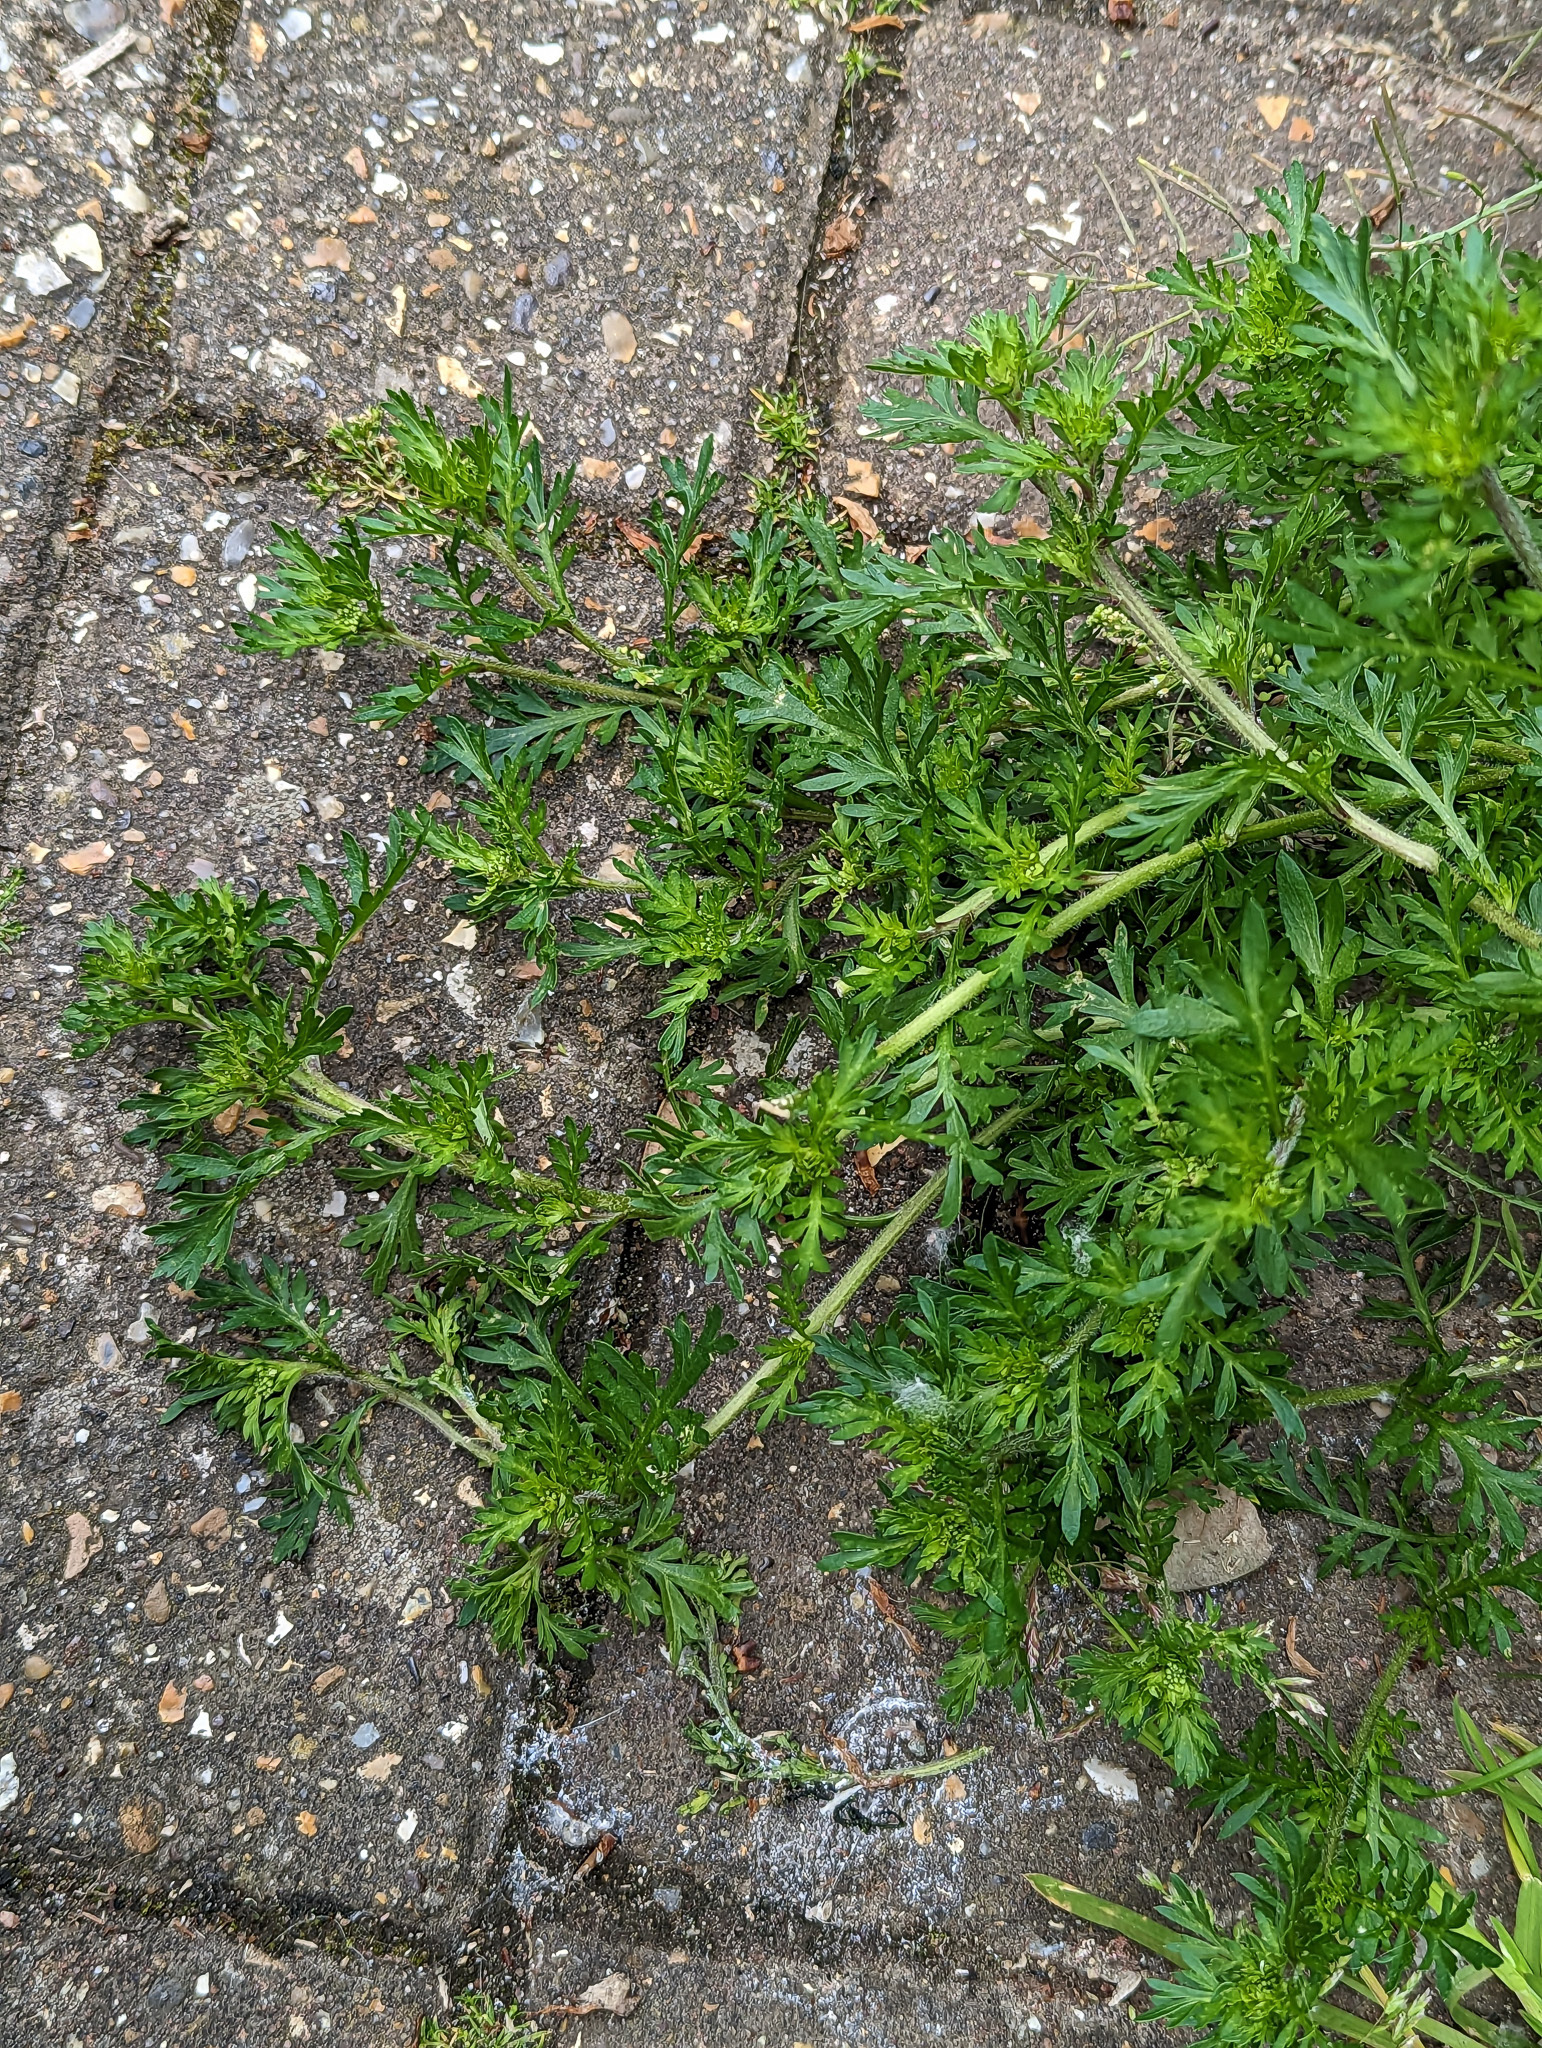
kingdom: Plantae
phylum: Tracheophyta
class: Magnoliopsida
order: Brassicales
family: Brassicaceae
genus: Lepidium
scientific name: Lepidium didymum
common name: Lesser swinecress
